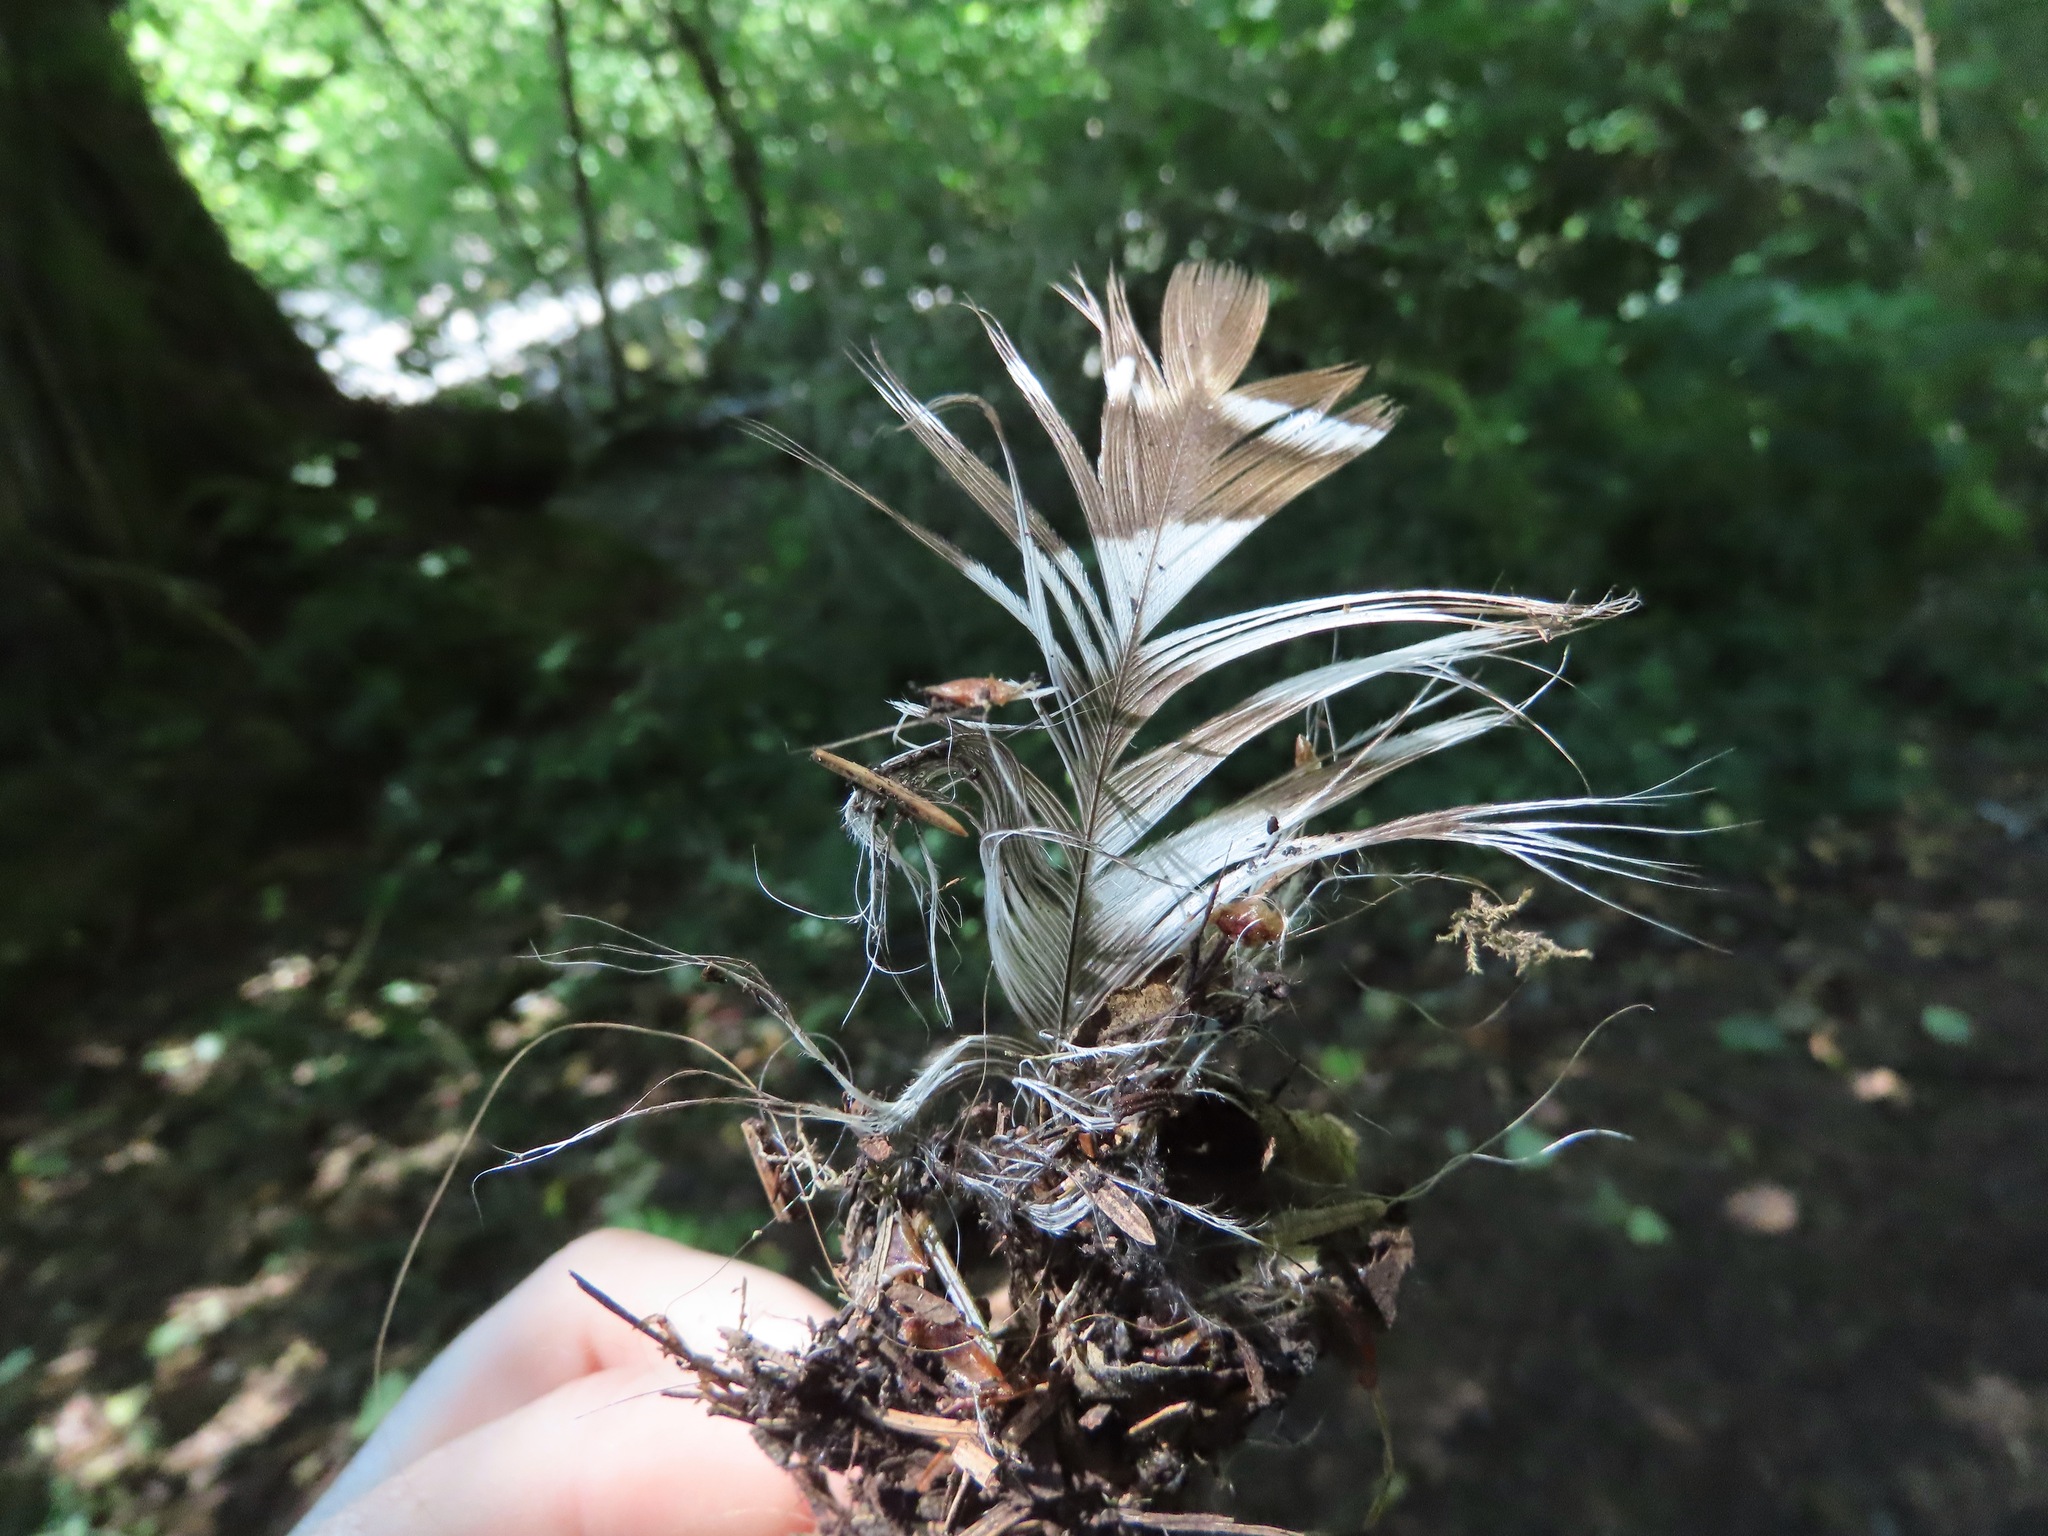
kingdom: Animalia
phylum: Chordata
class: Aves
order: Strigiformes
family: Strigidae
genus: Strix
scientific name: Strix varia
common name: Barred owl
